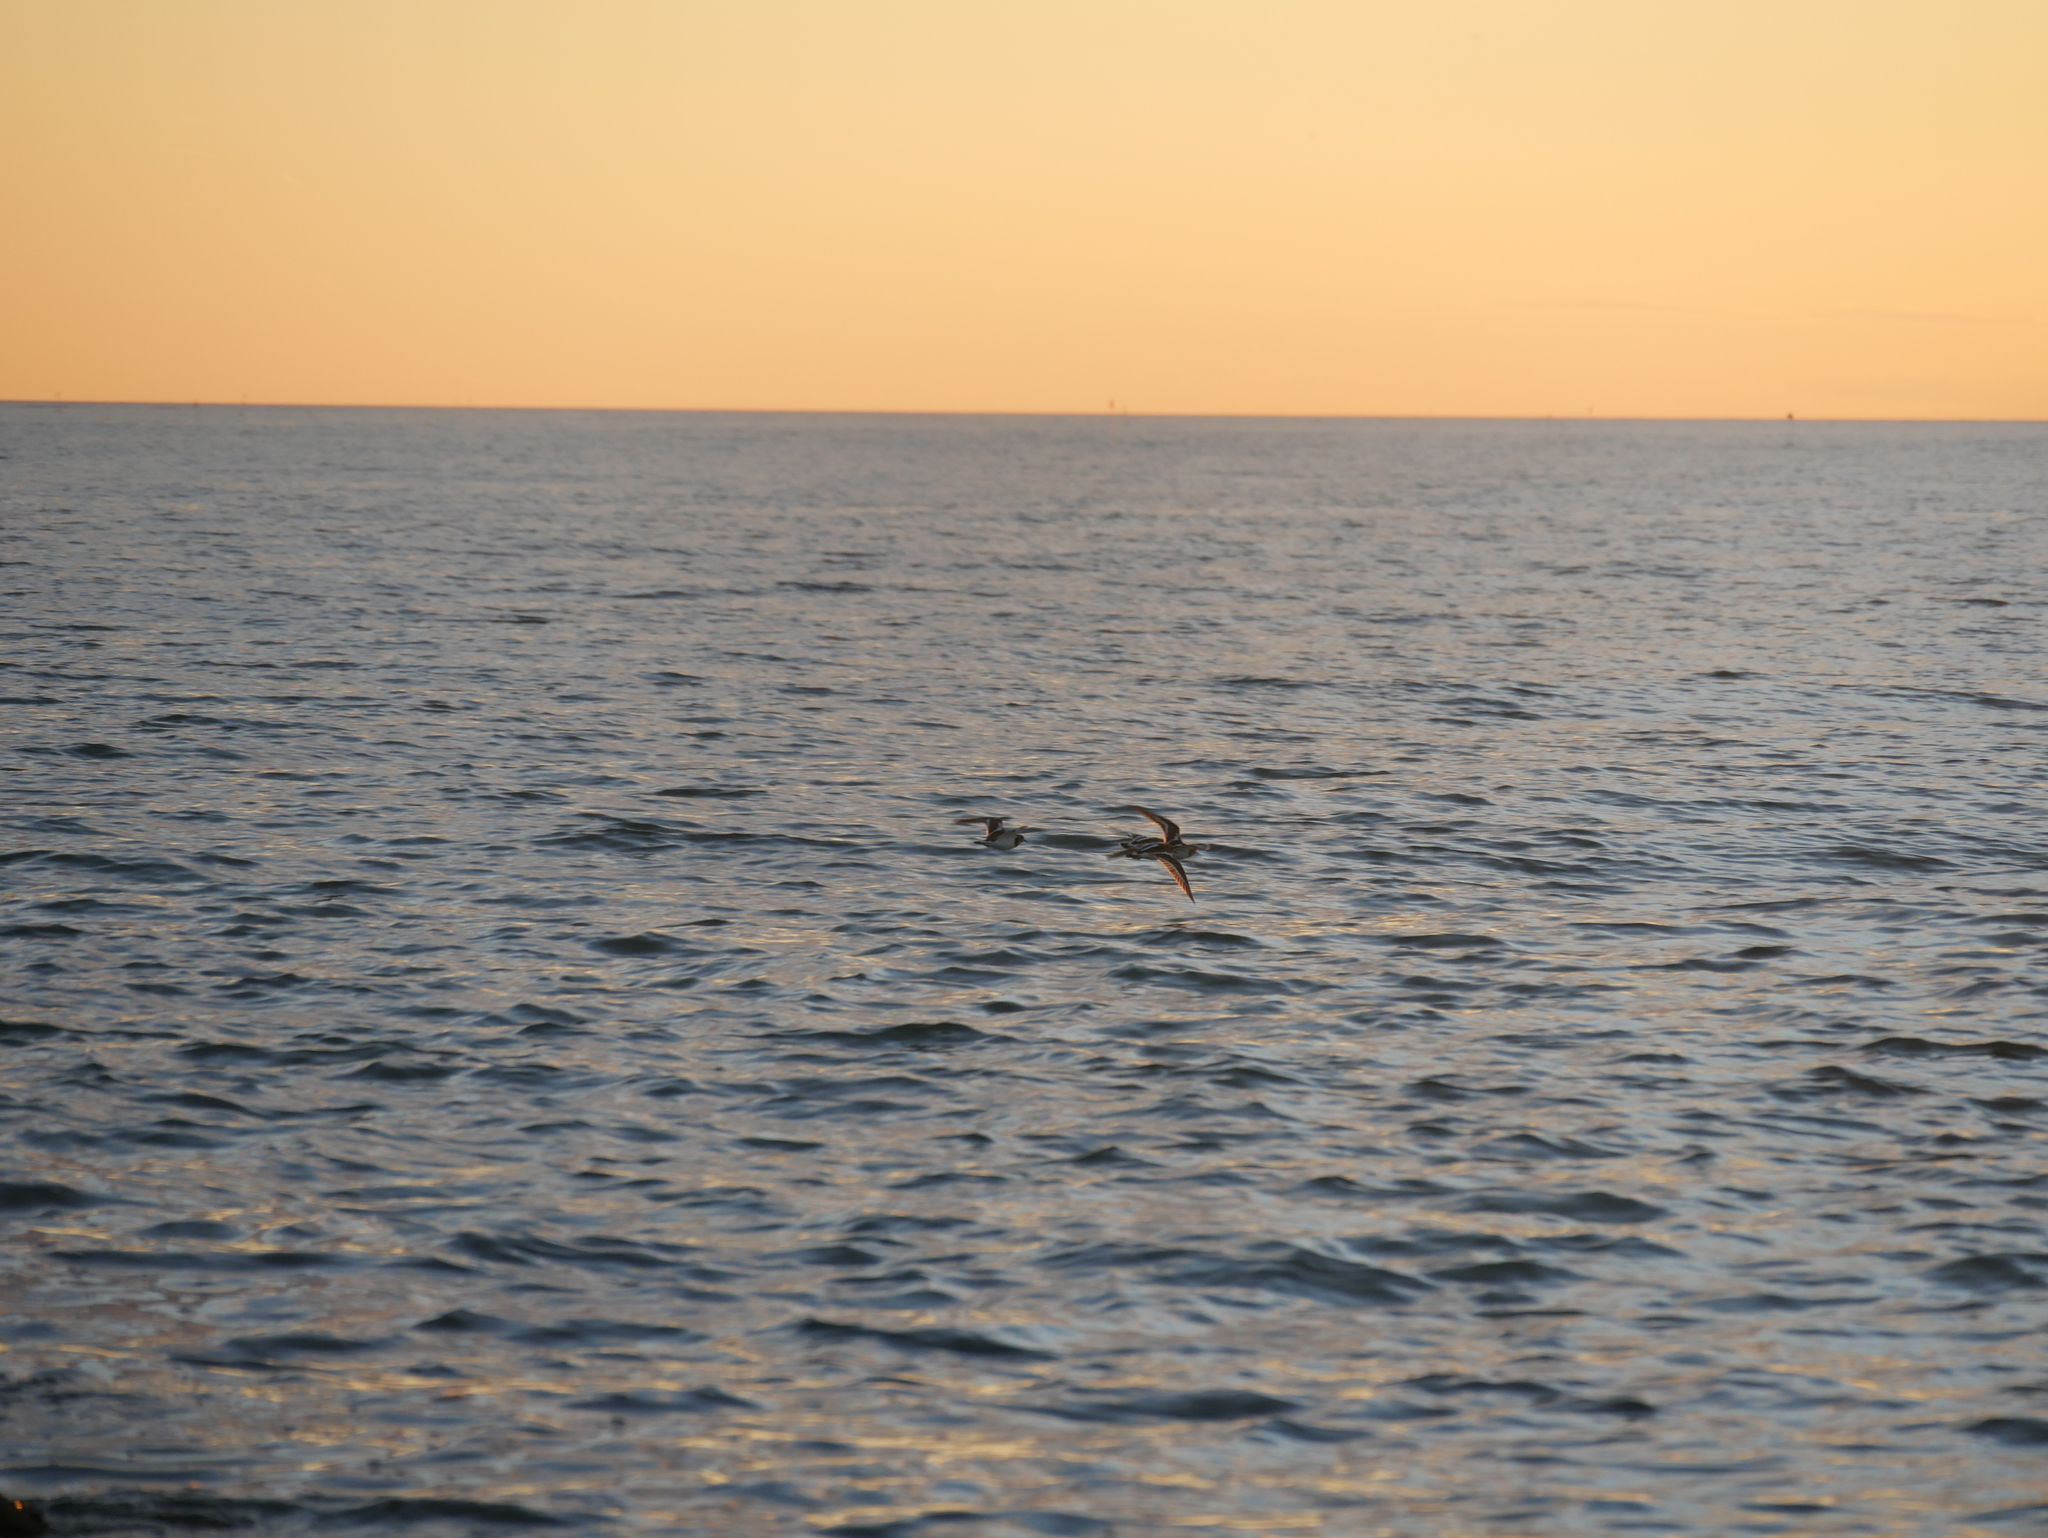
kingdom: Animalia
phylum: Chordata
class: Aves
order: Charadriiformes
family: Scolopacidae
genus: Arenaria
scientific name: Arenaria interpres
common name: Ruddy turnstone
